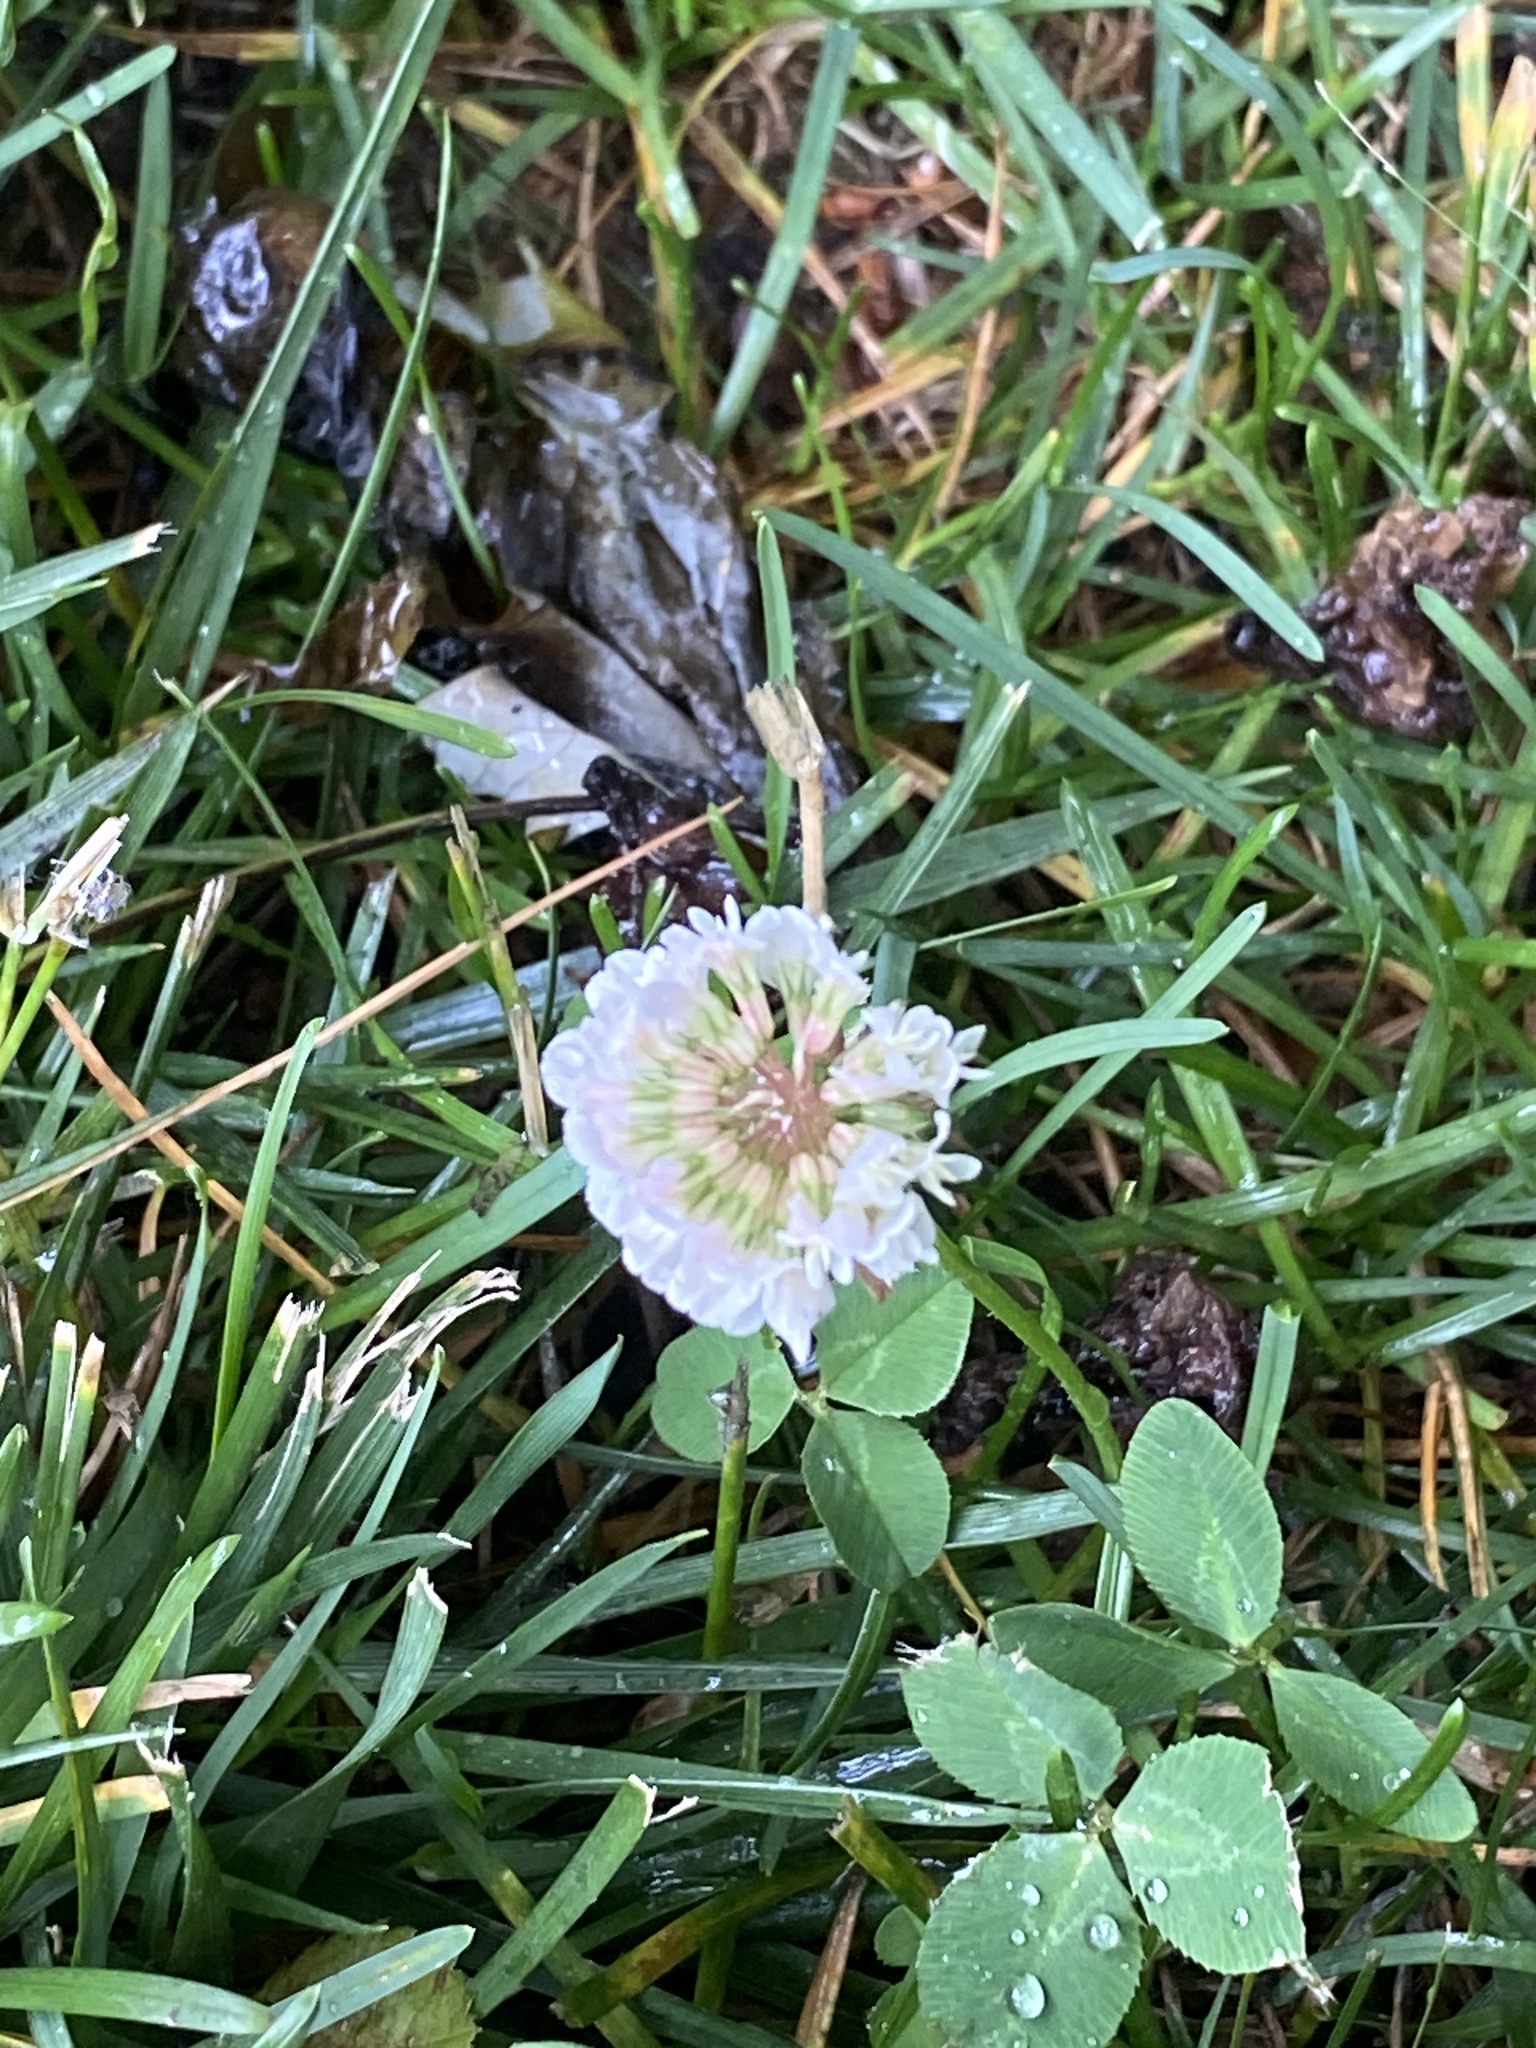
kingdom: Plantae
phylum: Tracheophyta
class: Magnoliopsida
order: Fabales
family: Fabaceae
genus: Trifolium
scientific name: Trifolium repens
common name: White clover
